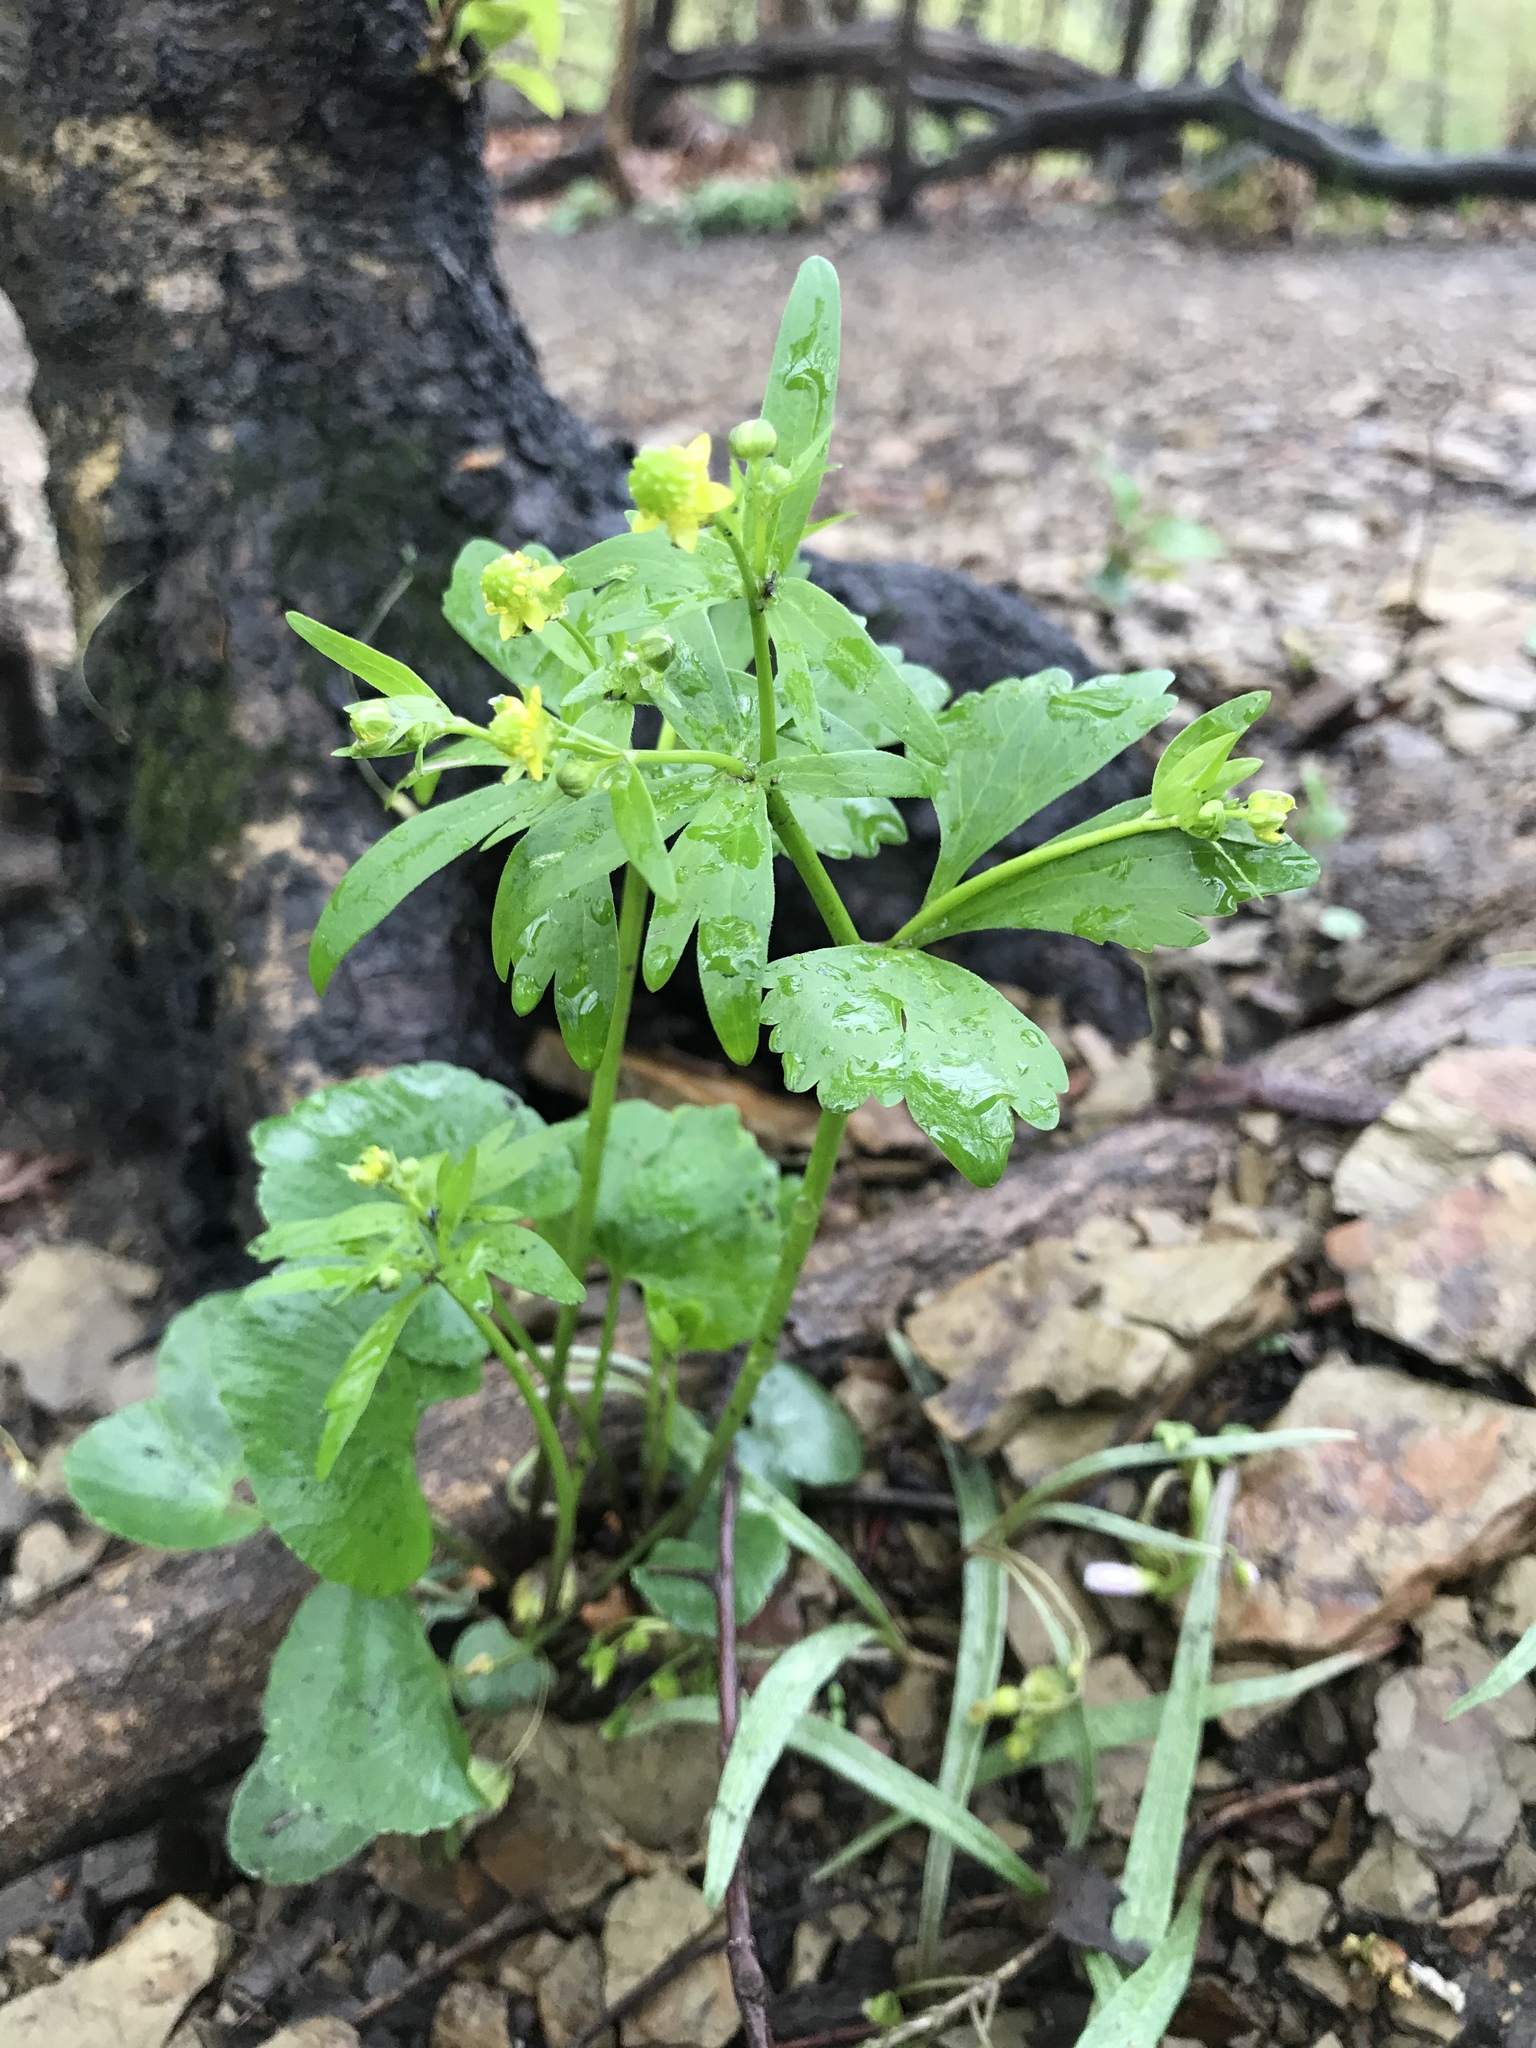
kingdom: Plantae
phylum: Tracheophyta
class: Magnoliopsida
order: Ranunculales
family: Ranunculaceae
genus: Ranunculus
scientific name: Ranunculus abortivus
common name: Early wood buttercup
